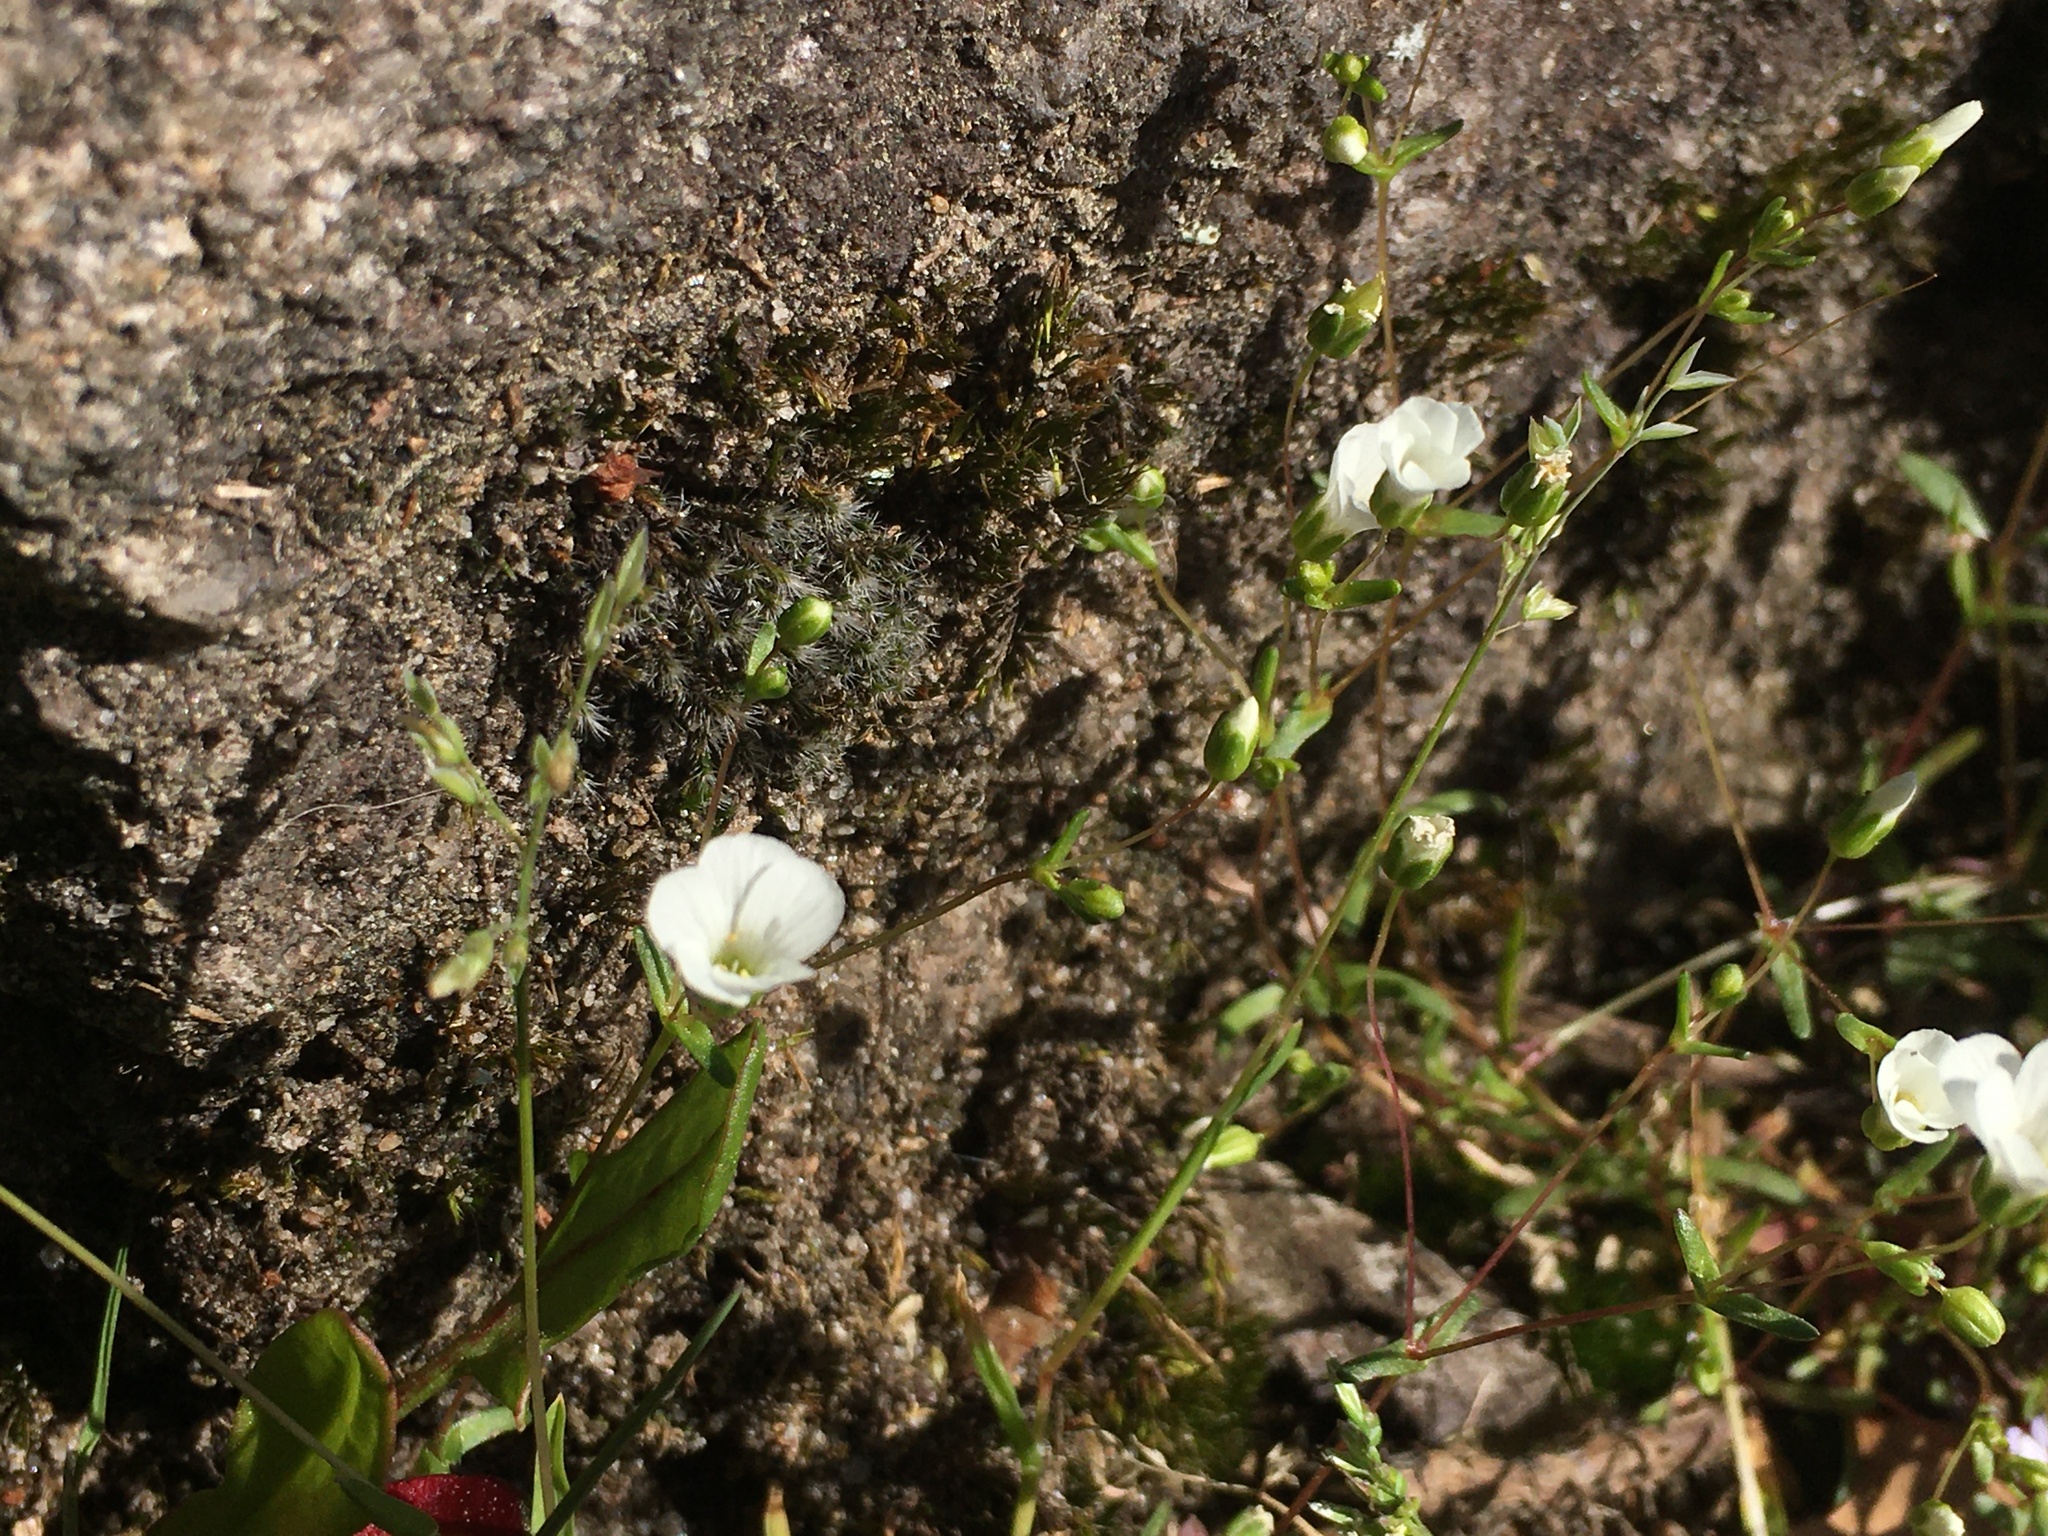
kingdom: Plantae
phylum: Tracheophyta
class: Magnoliopsida
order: Caryophyllales
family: Caryophyllaceae
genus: Geocarpon
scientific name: Geocarpon uniflorum
